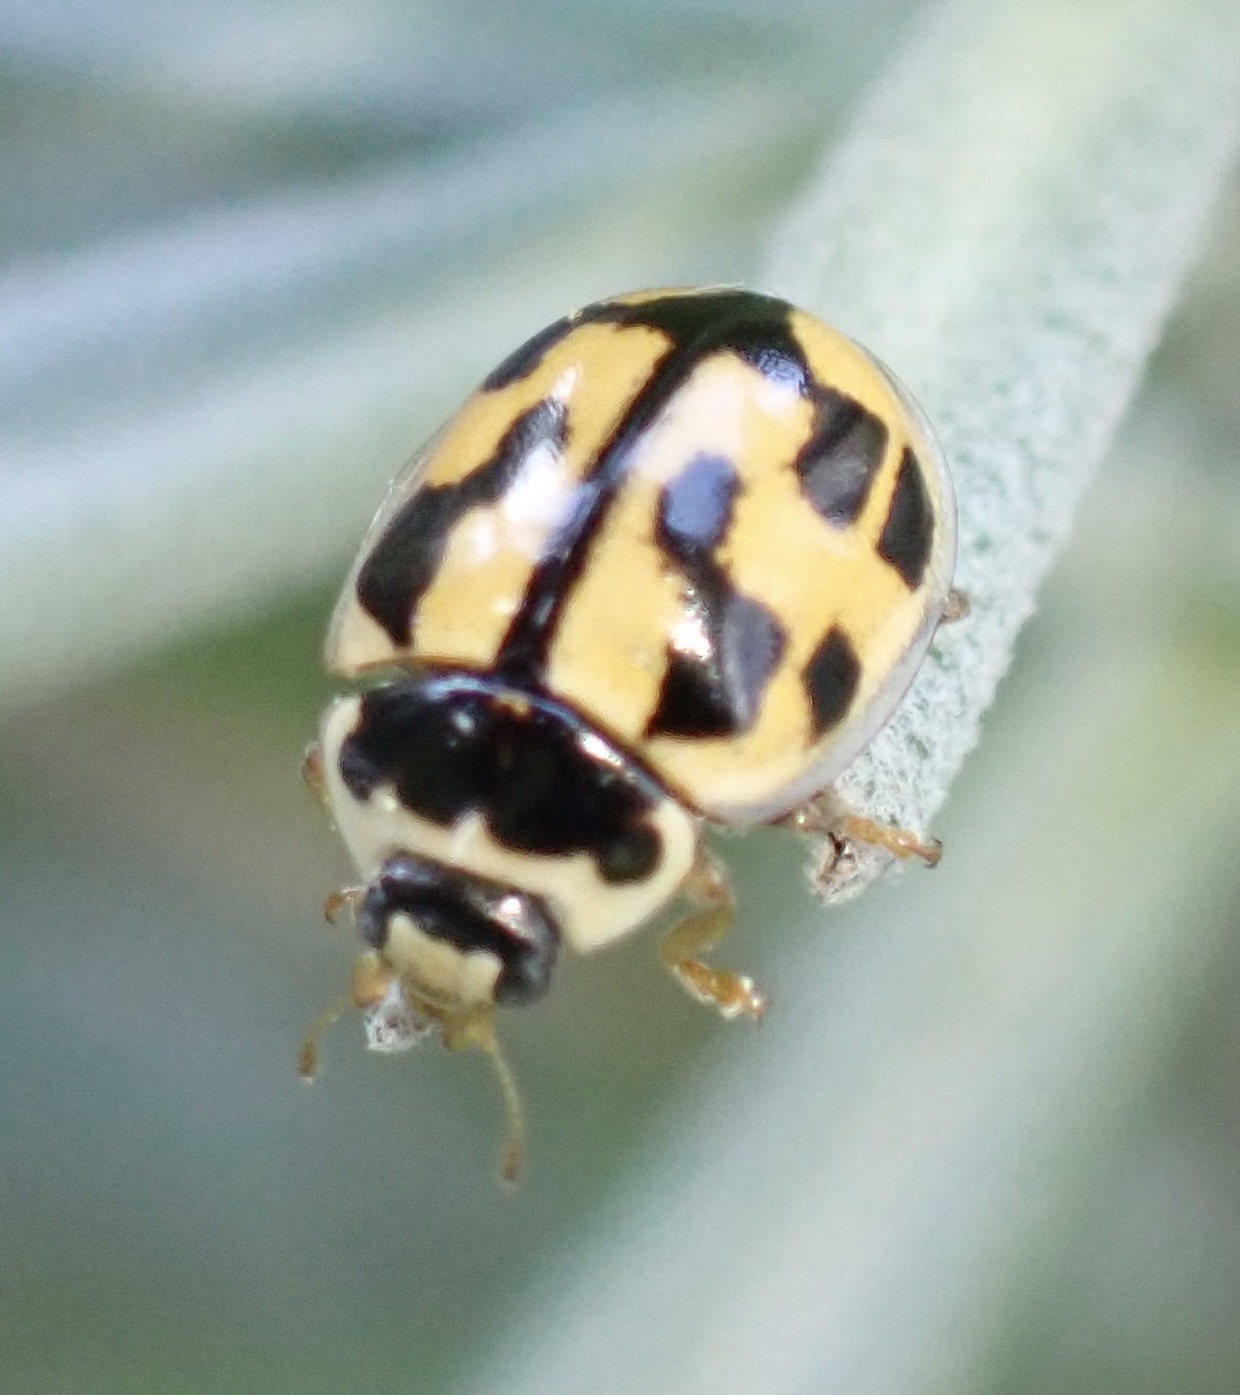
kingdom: Animalia
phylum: Arthropoda
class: Insecta
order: Coleoptera
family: Coccinellidae
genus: Propylaea
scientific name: Propylaea quatuordecimpunctata
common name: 14-spotted ladybird beetle
